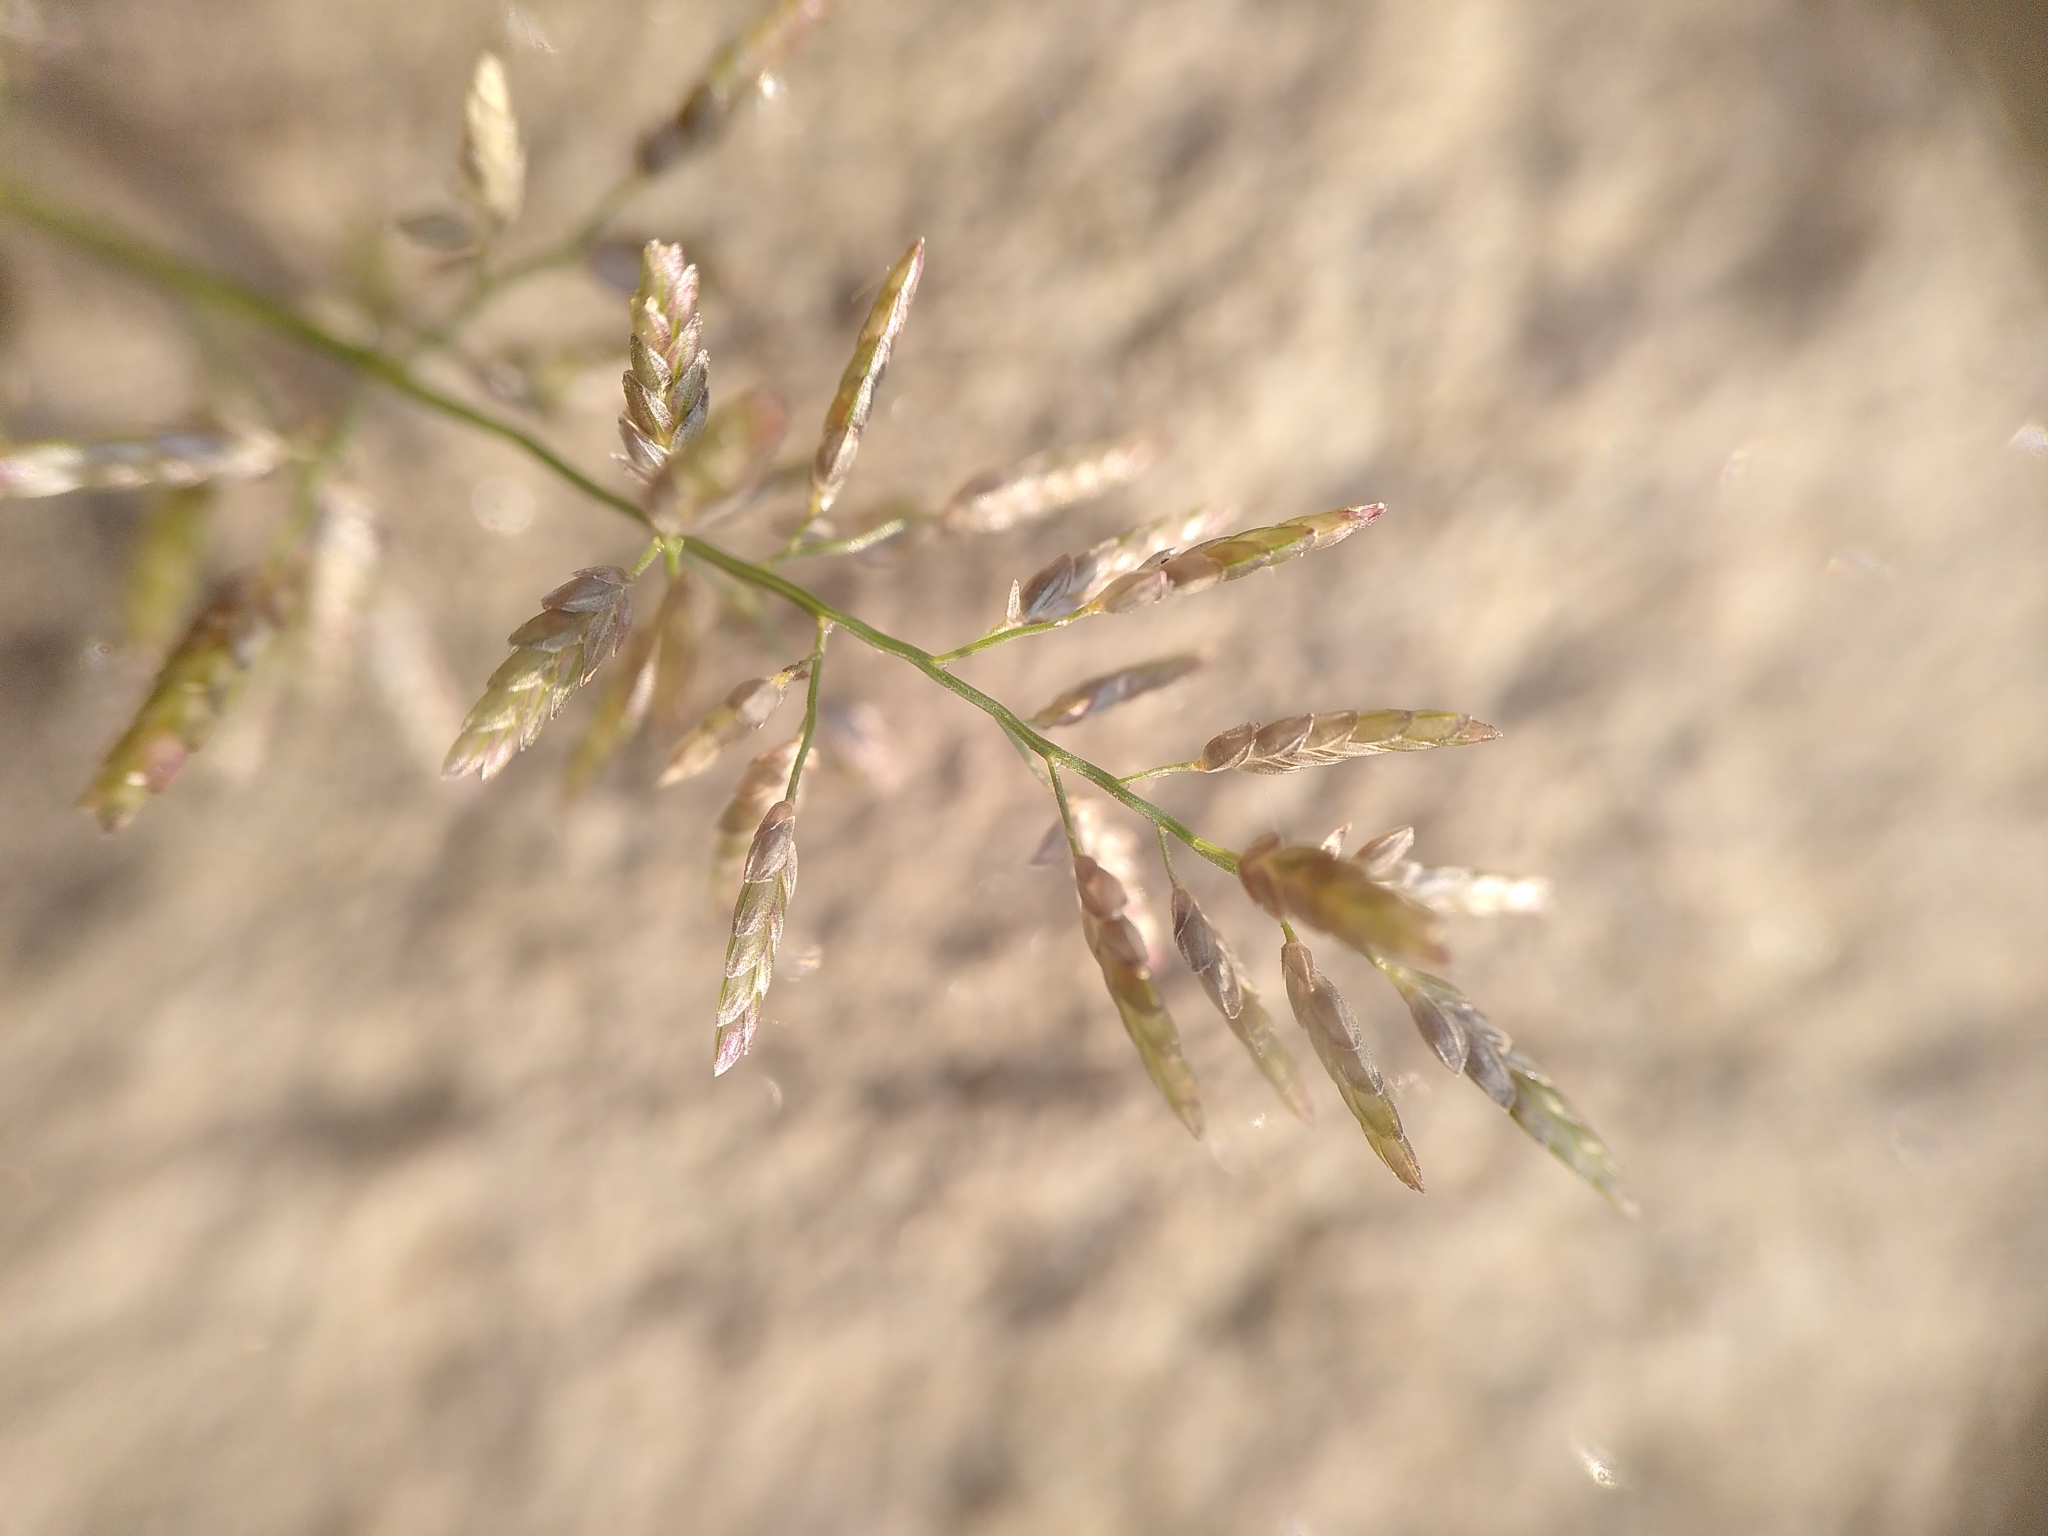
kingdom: Plantae
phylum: Tracheophyta
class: Liliopsida
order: Poales
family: Poaceae
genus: Eragrostis
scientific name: Eragrostis minor
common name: Small love-grass
